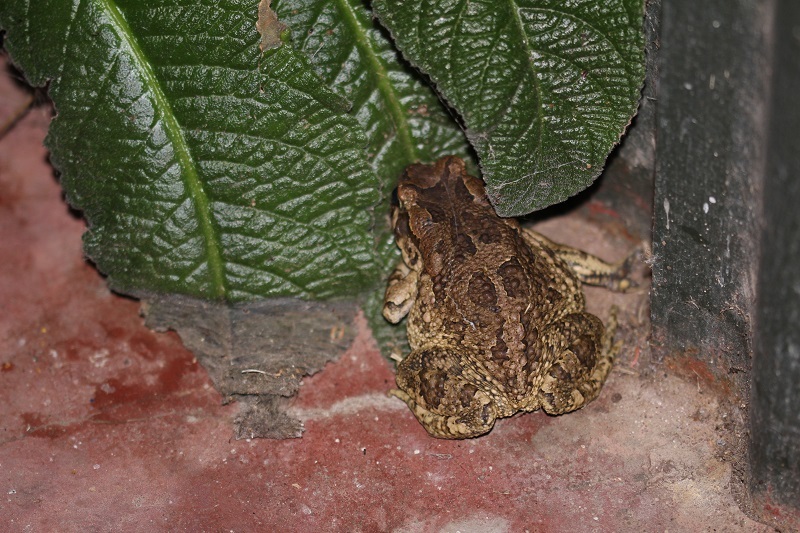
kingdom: Animalia
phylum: Chordata
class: Amphibia
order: Anura
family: Bufonidae
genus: Sclerophrys
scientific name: Sclerophrys capensis
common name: Ranger’s toad
